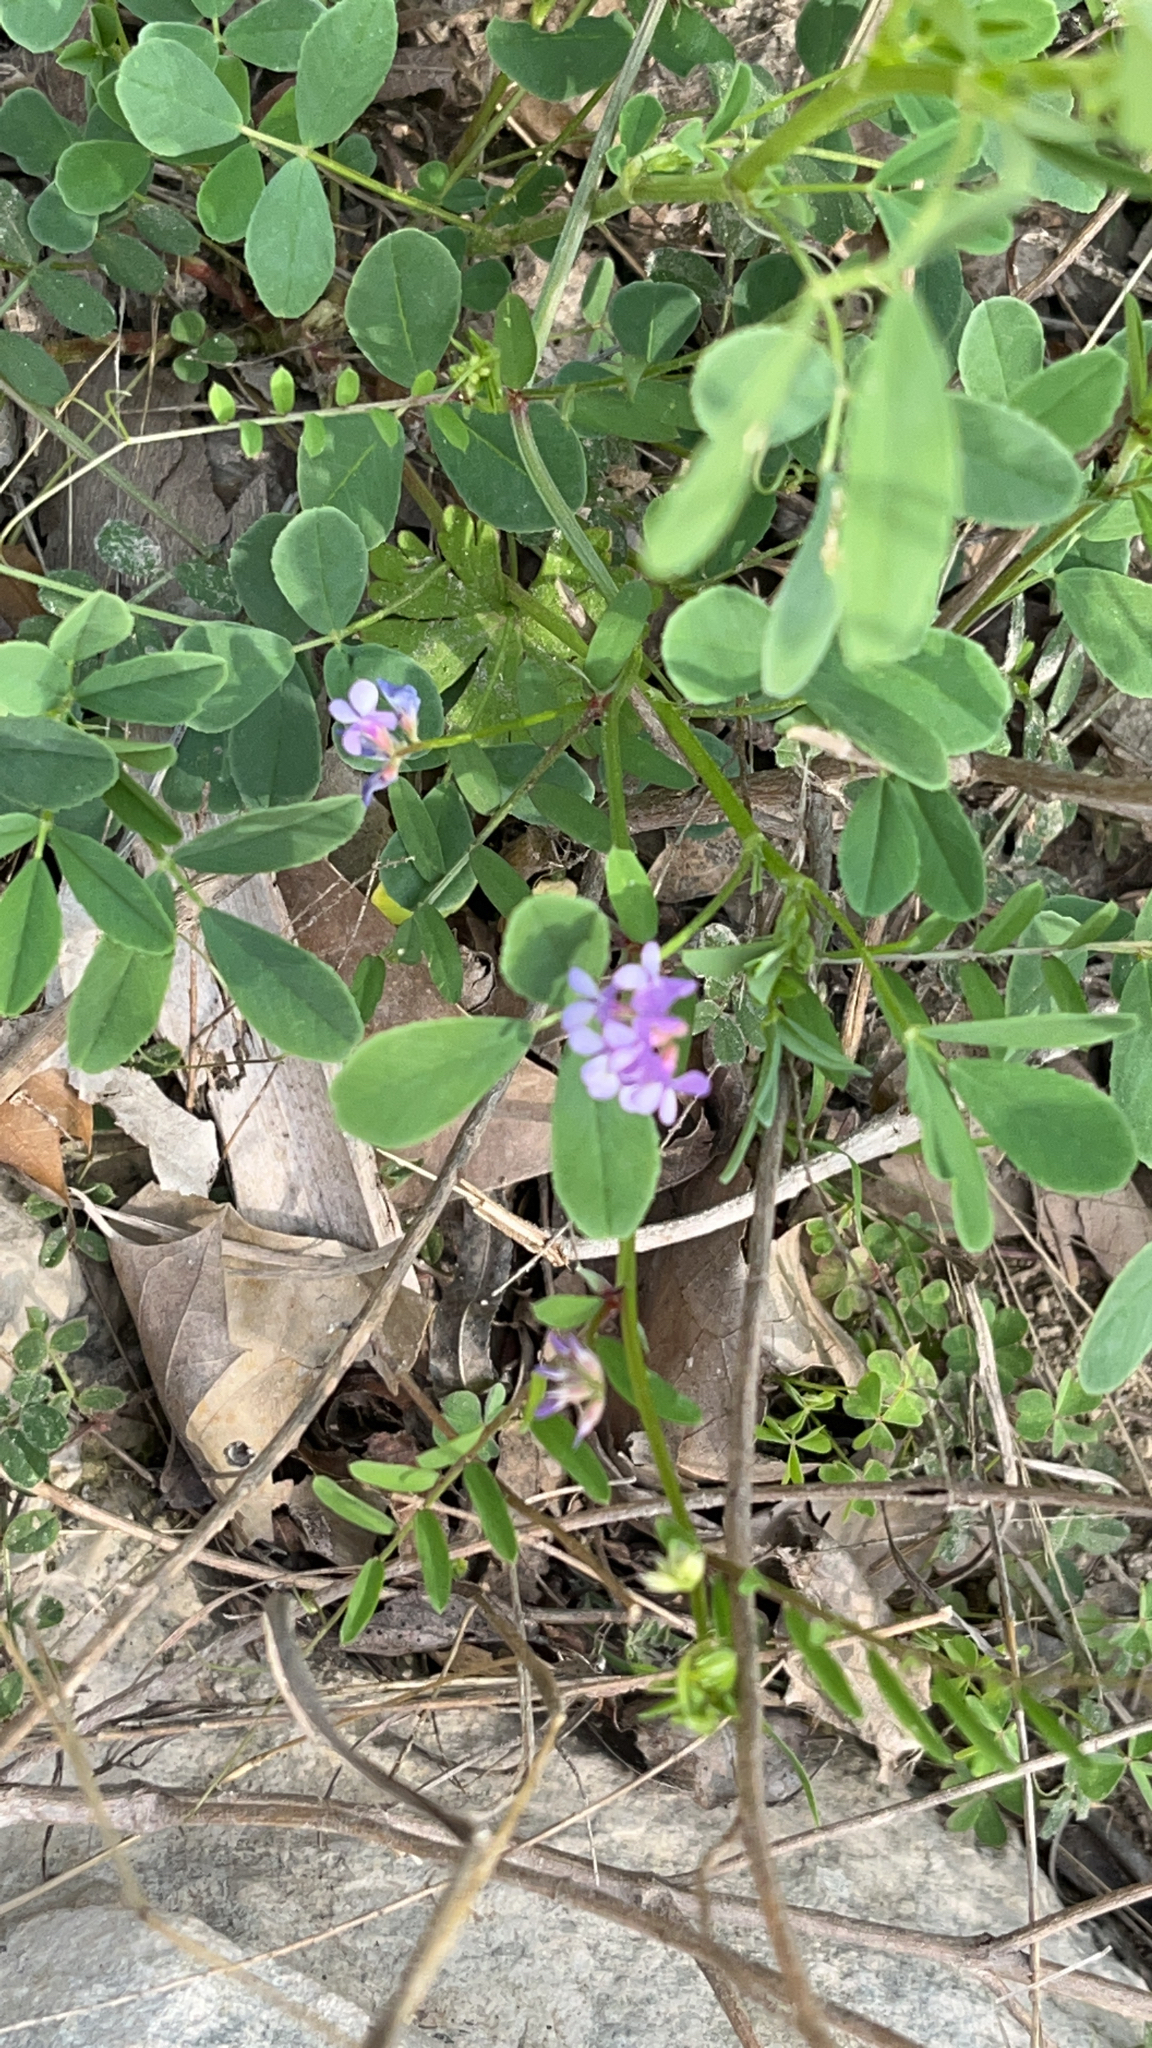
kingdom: Plantae
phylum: Tracheophyta
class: Magnoliopsida
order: Fabales
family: Fabaceae
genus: Vicia
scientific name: Vicia ludoviciana
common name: Louisiana vetch
